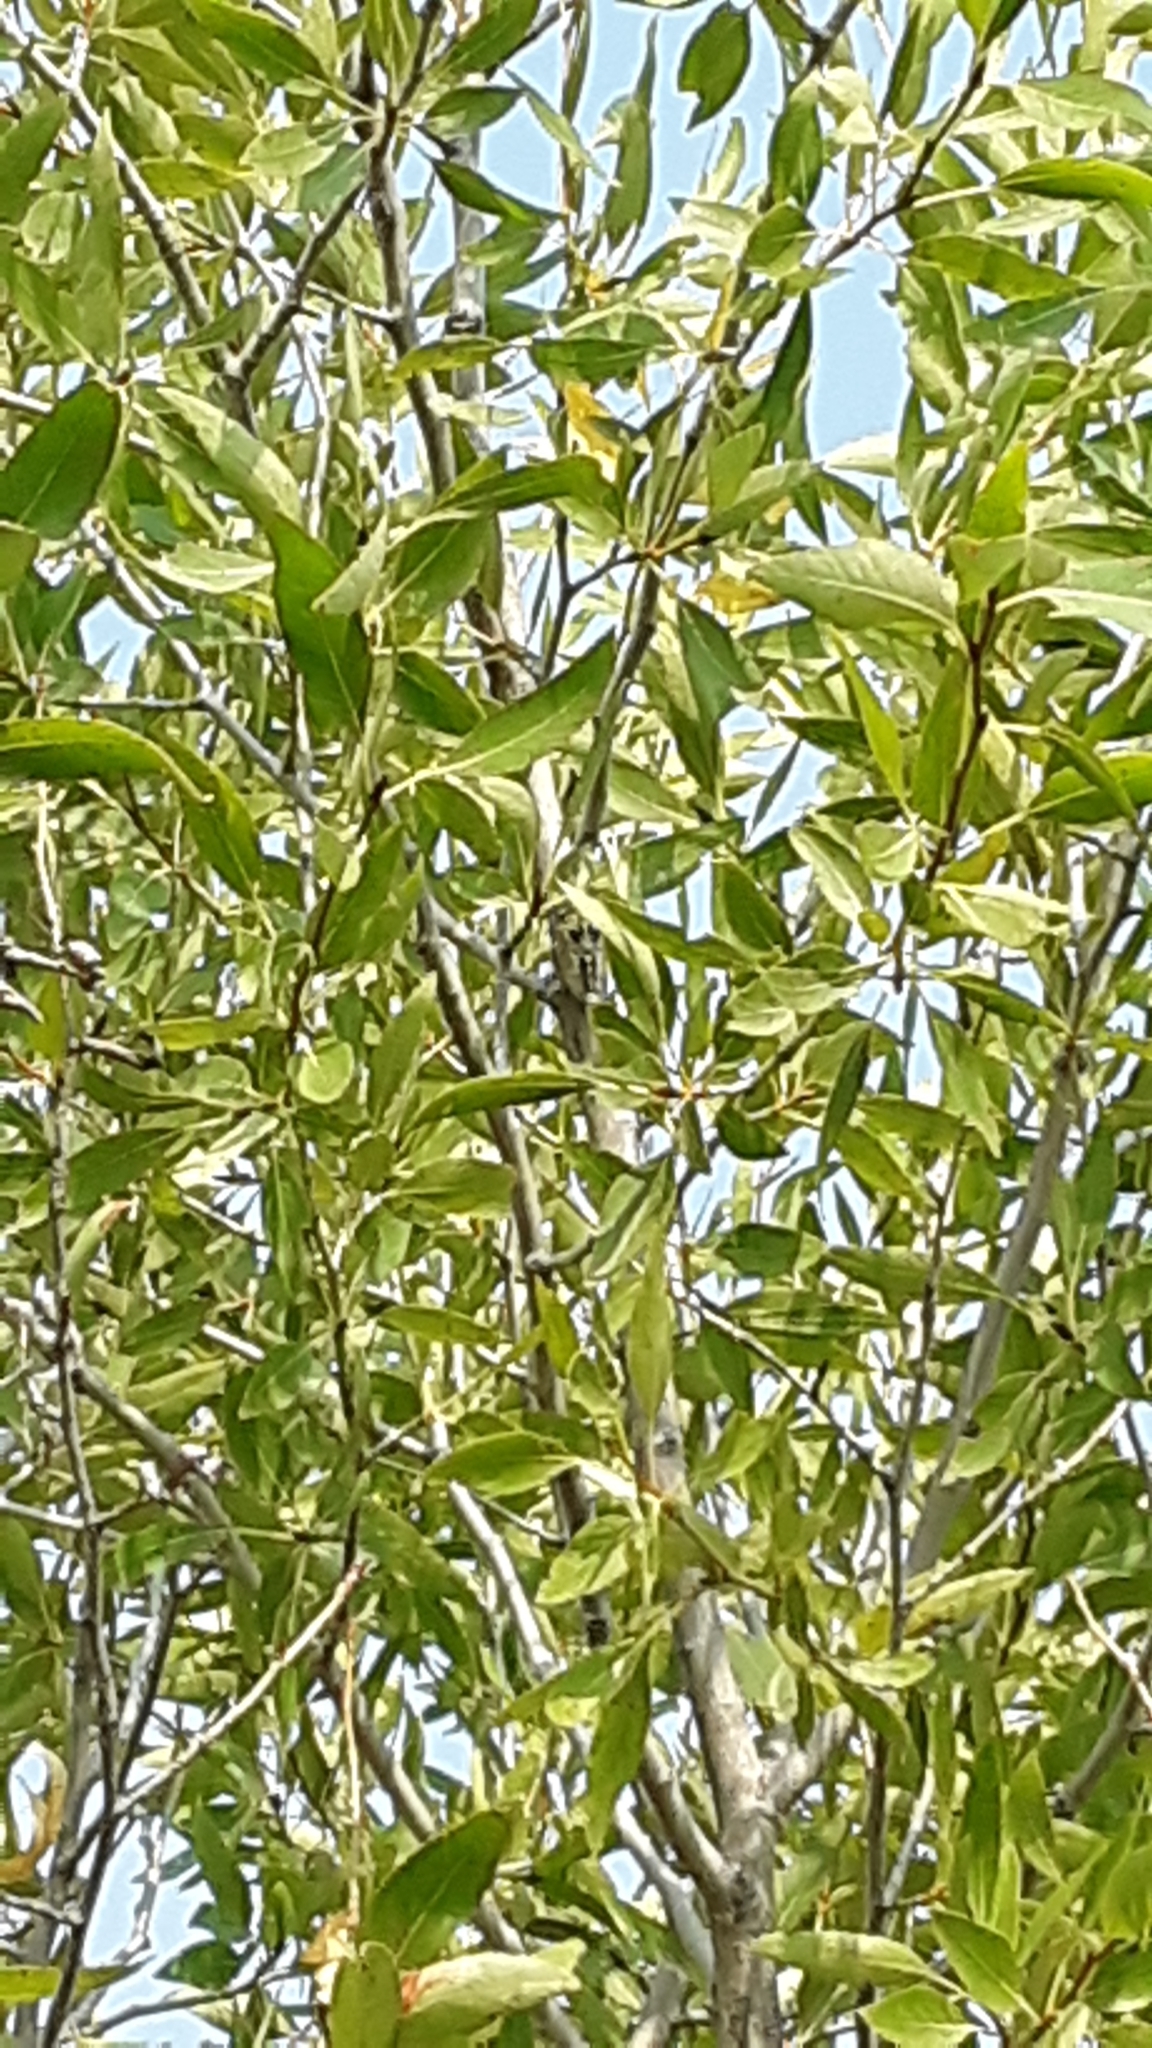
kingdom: Animalia
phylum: Arthropoda
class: Insecta
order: Hemiptera
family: Cicadidae
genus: Megatibicen
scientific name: Megatibicen dealbatus
